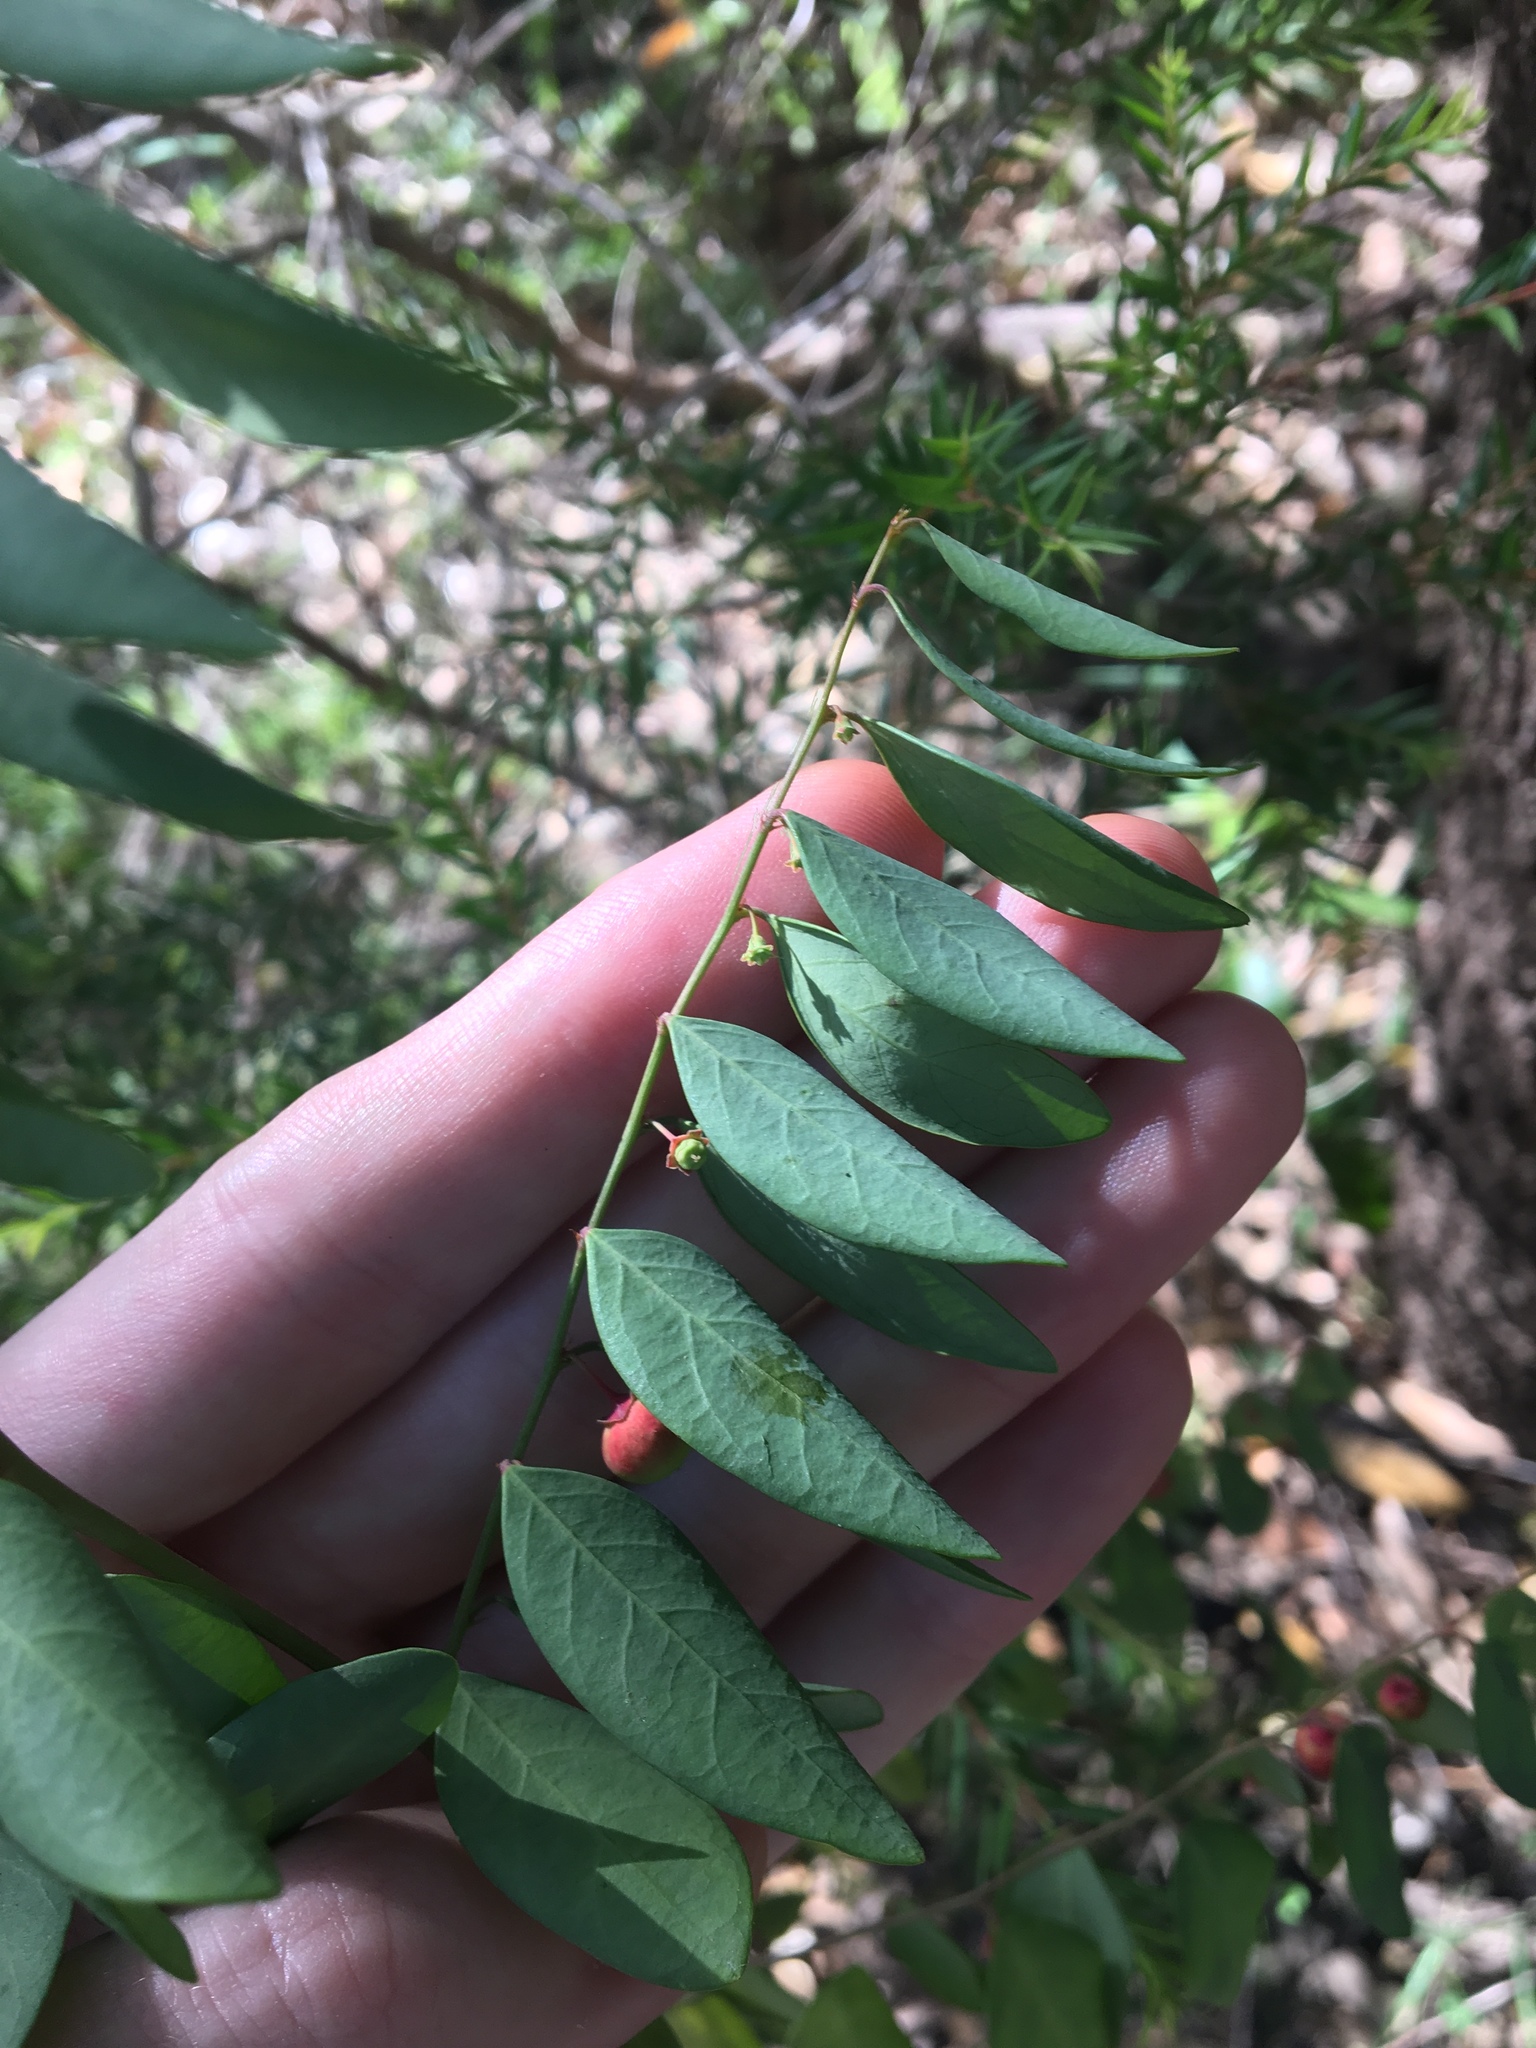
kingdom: Plantae
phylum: Tracheophyta
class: Magnoliopsida
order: Malpighiales
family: Phyllanthaceae
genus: Breynia
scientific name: Breynia oblongifolia
